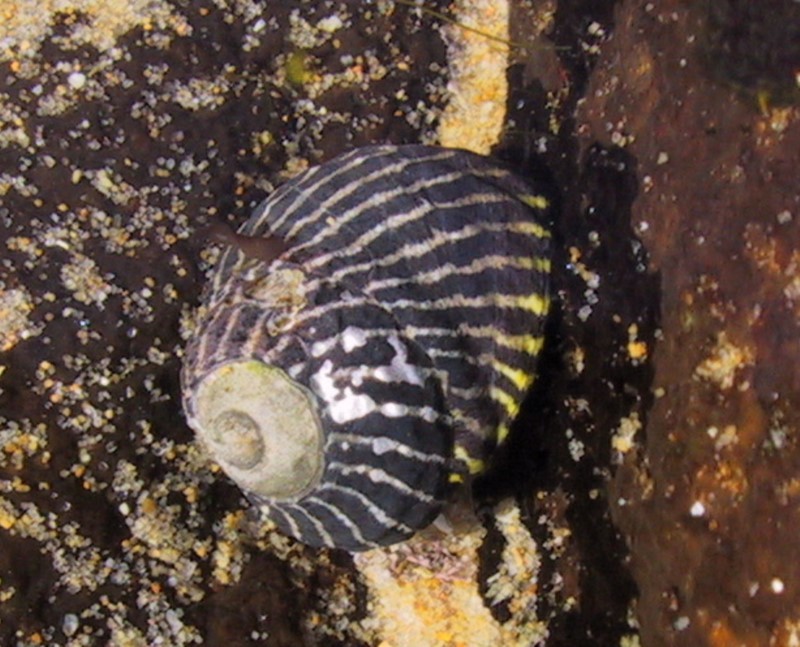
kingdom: Animalia
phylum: Mollusca
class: Gastropoda
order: Trochida
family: Trochidae
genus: Austrocochlea
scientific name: Austrocochlea porcata
